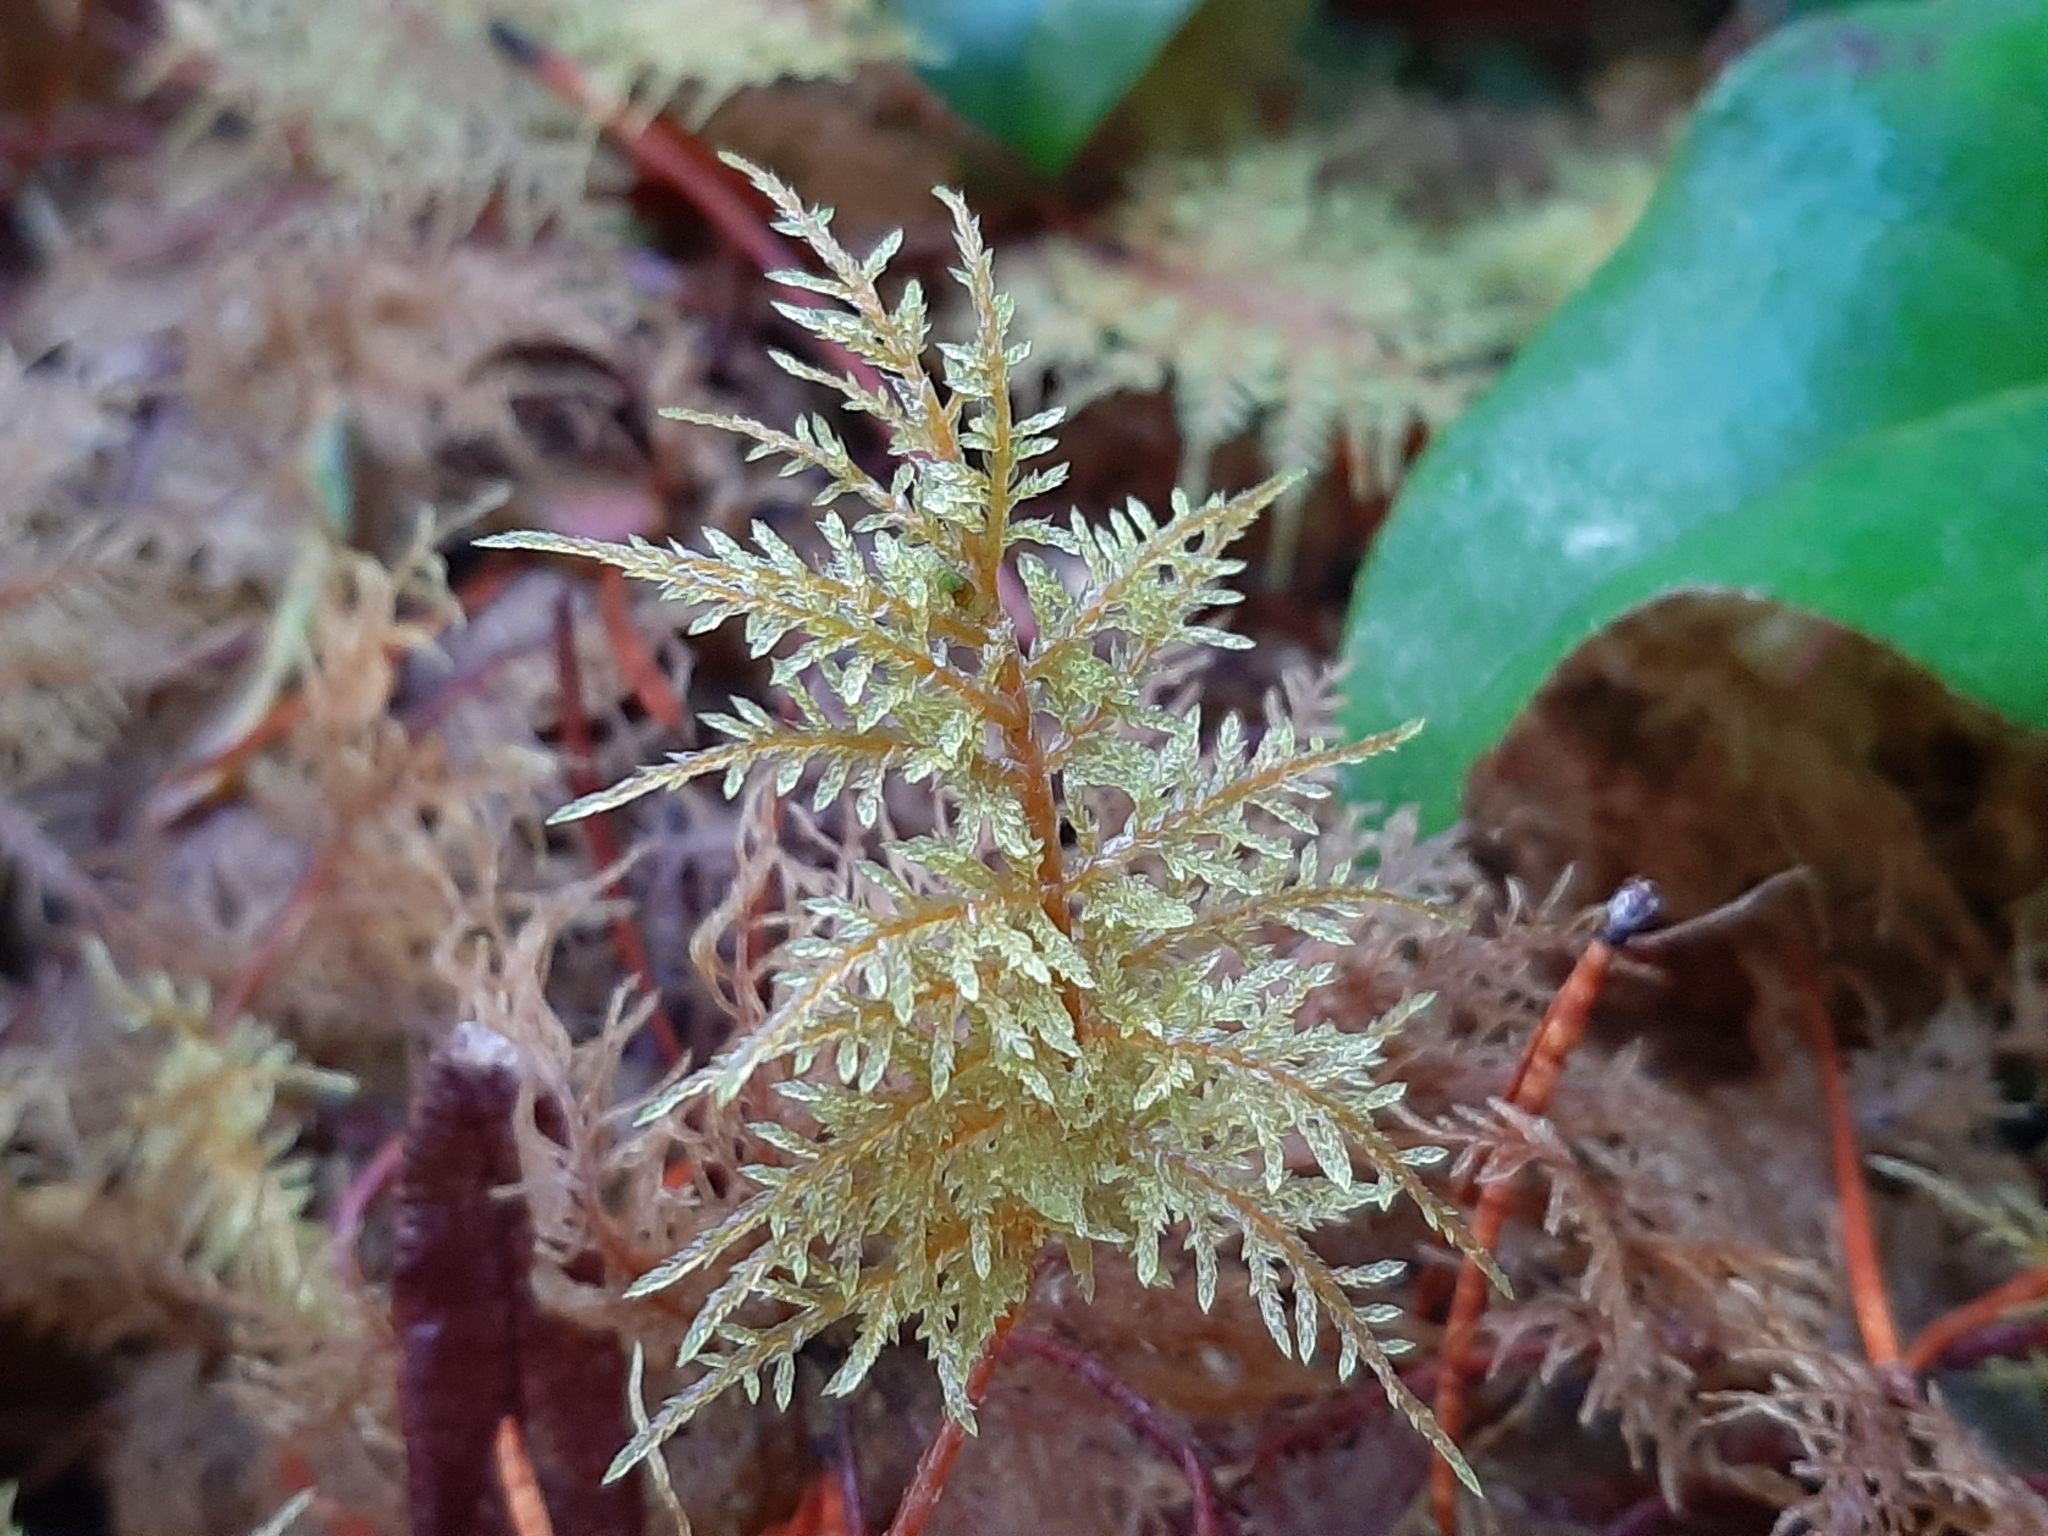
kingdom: Plantae
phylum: Bryophyta
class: Bryopsida
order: Hypnales
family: Hylocomiaceae
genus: Hylocomium
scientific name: Hylocomium splendens
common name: Stairstep moss
